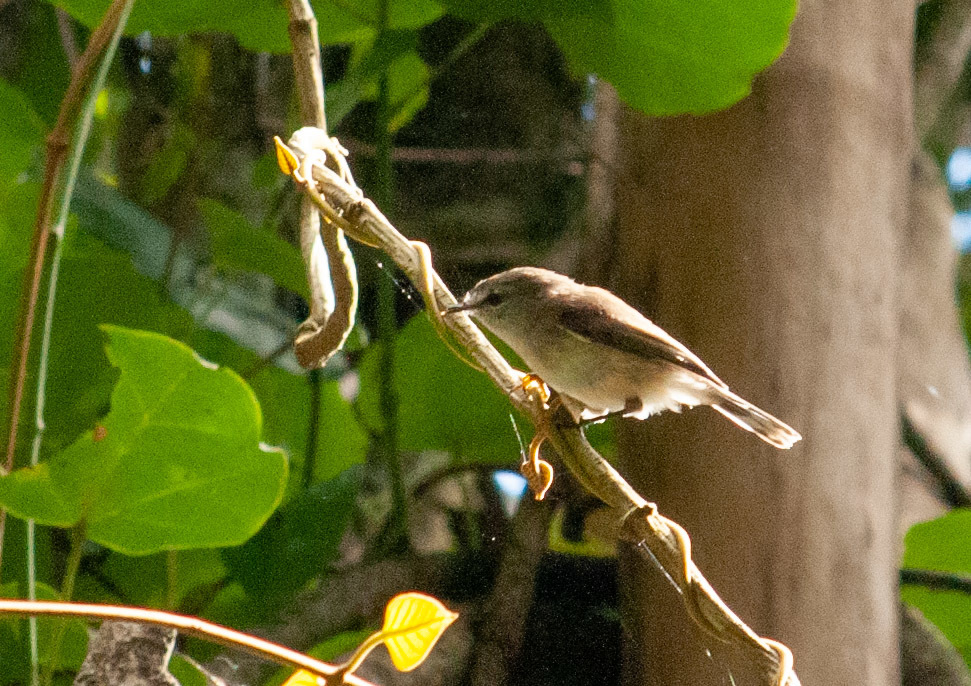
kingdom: Animalia
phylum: Chordata
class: Aves
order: Passeriformes
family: Acanthizidae
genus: Gerygone
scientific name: Gerygone mouki
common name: Brown gerygone
